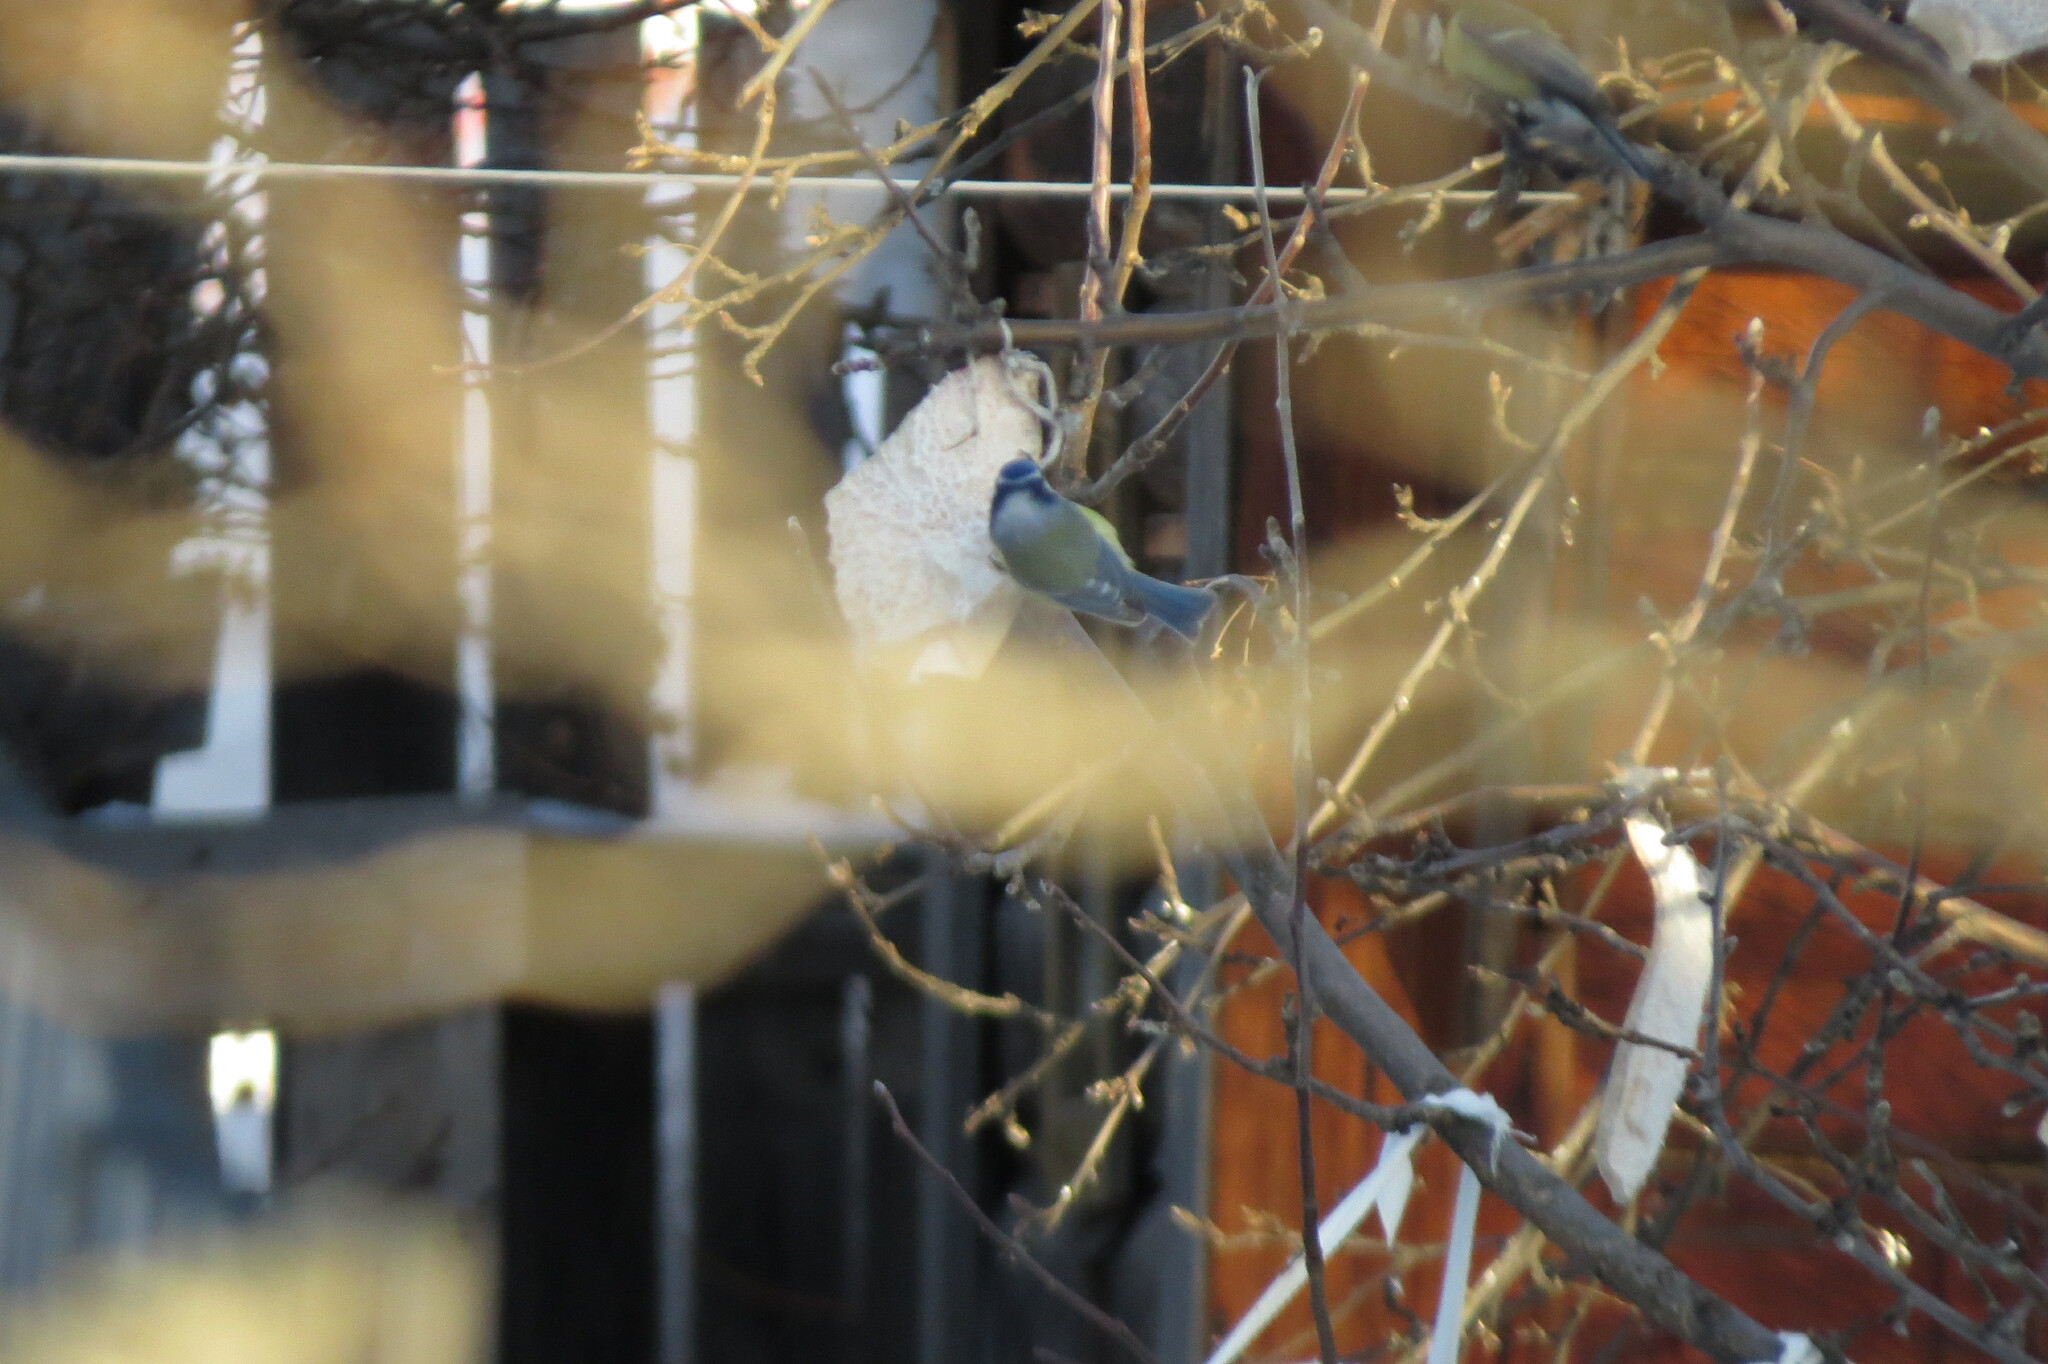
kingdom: Animalia
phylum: Chordata
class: Aves
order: Passeriformes
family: Paridae
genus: Cyanistes
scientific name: Cyanistes caeruleus
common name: Eurasian blue tit
